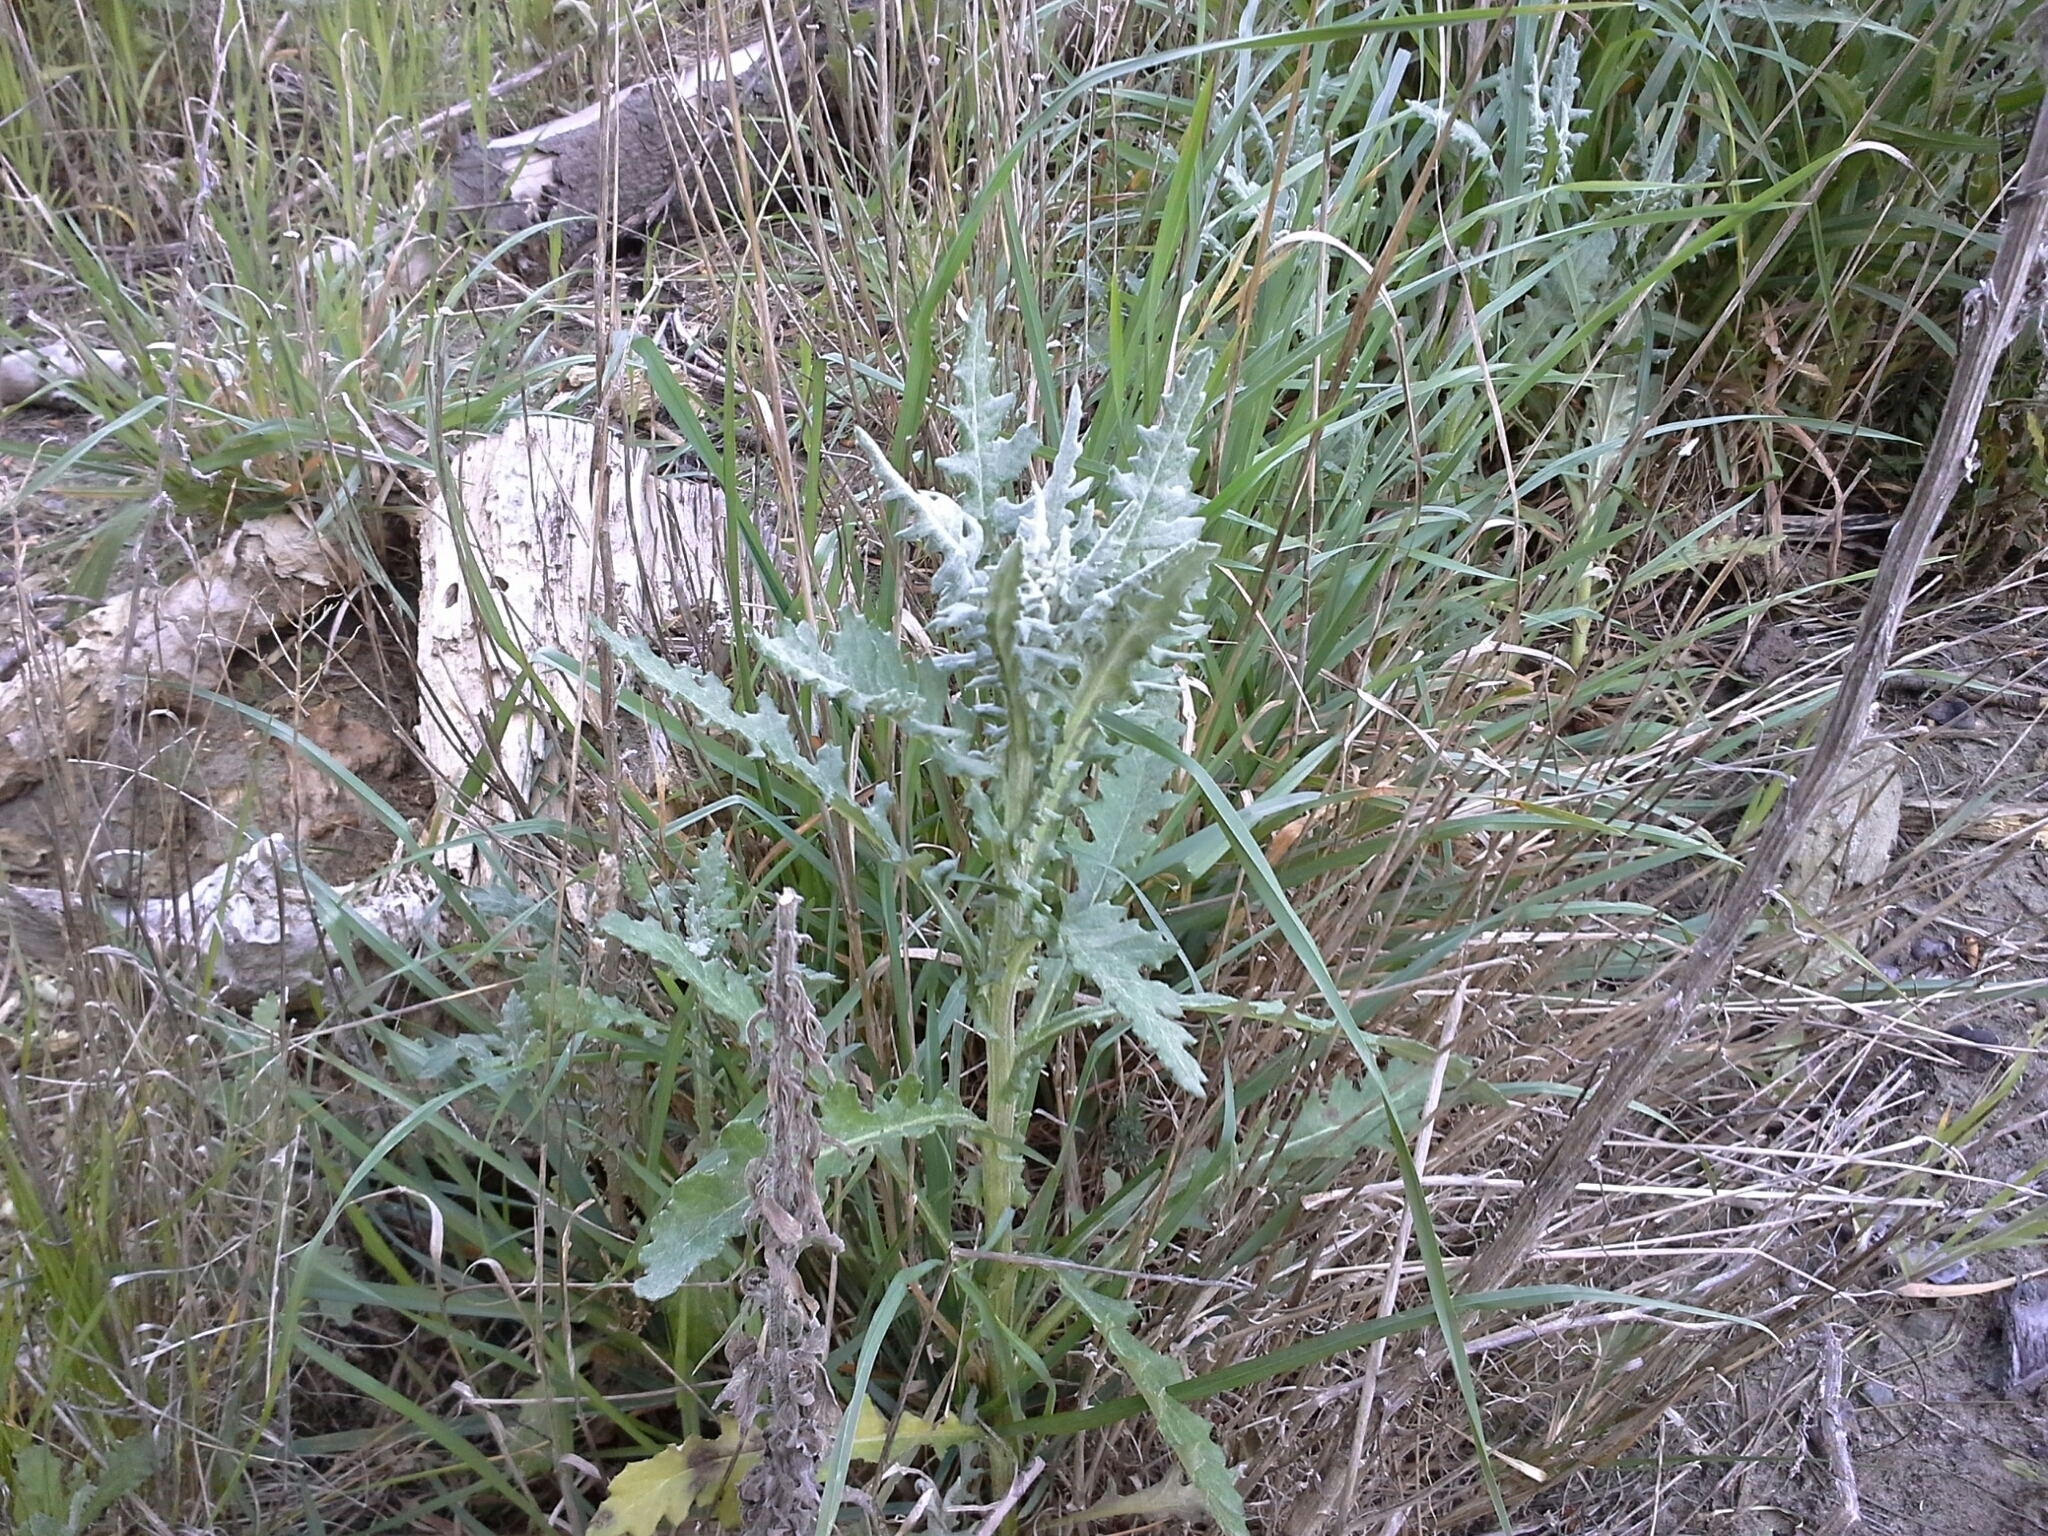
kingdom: Plantae
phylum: Tracheophyta
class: Magnoliopsida
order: Asterales
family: Asteraceae
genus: Senecio
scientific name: Senecio glomeratus
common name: Cutleaf burnweed
